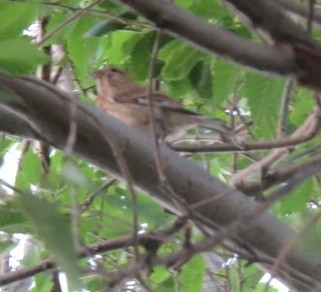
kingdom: Animalia
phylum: Chordata
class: Aves
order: Passeriformes
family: Fringillidae
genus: Linaria
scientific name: Linaria cannabina
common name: Common linnet
